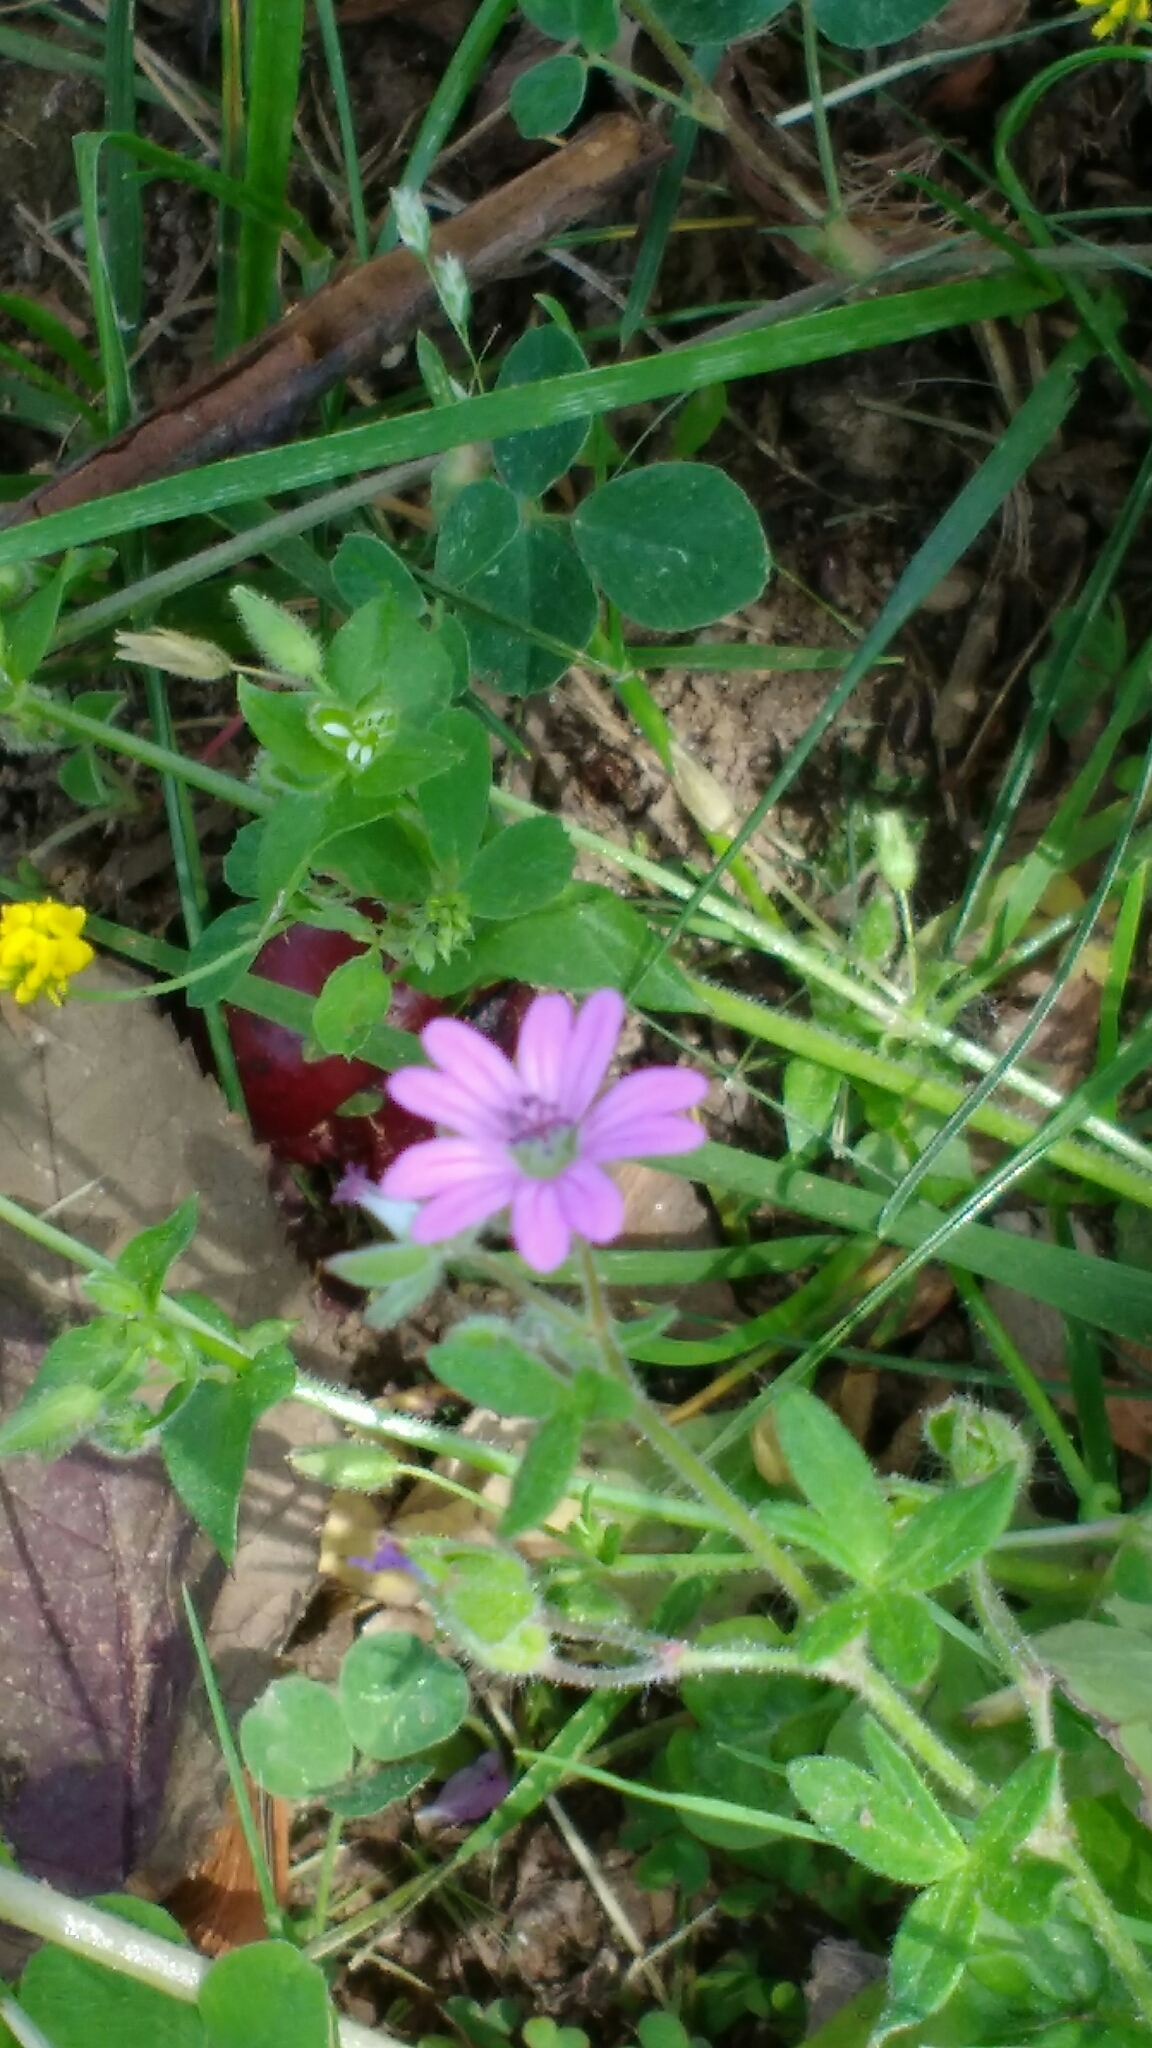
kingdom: Plantae
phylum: Tracheophyta
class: Magnoliopsida
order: Geraniales
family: Geraniaceae
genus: Geranium
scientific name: Geranium molle
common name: Dove's-foot crane's-bill
